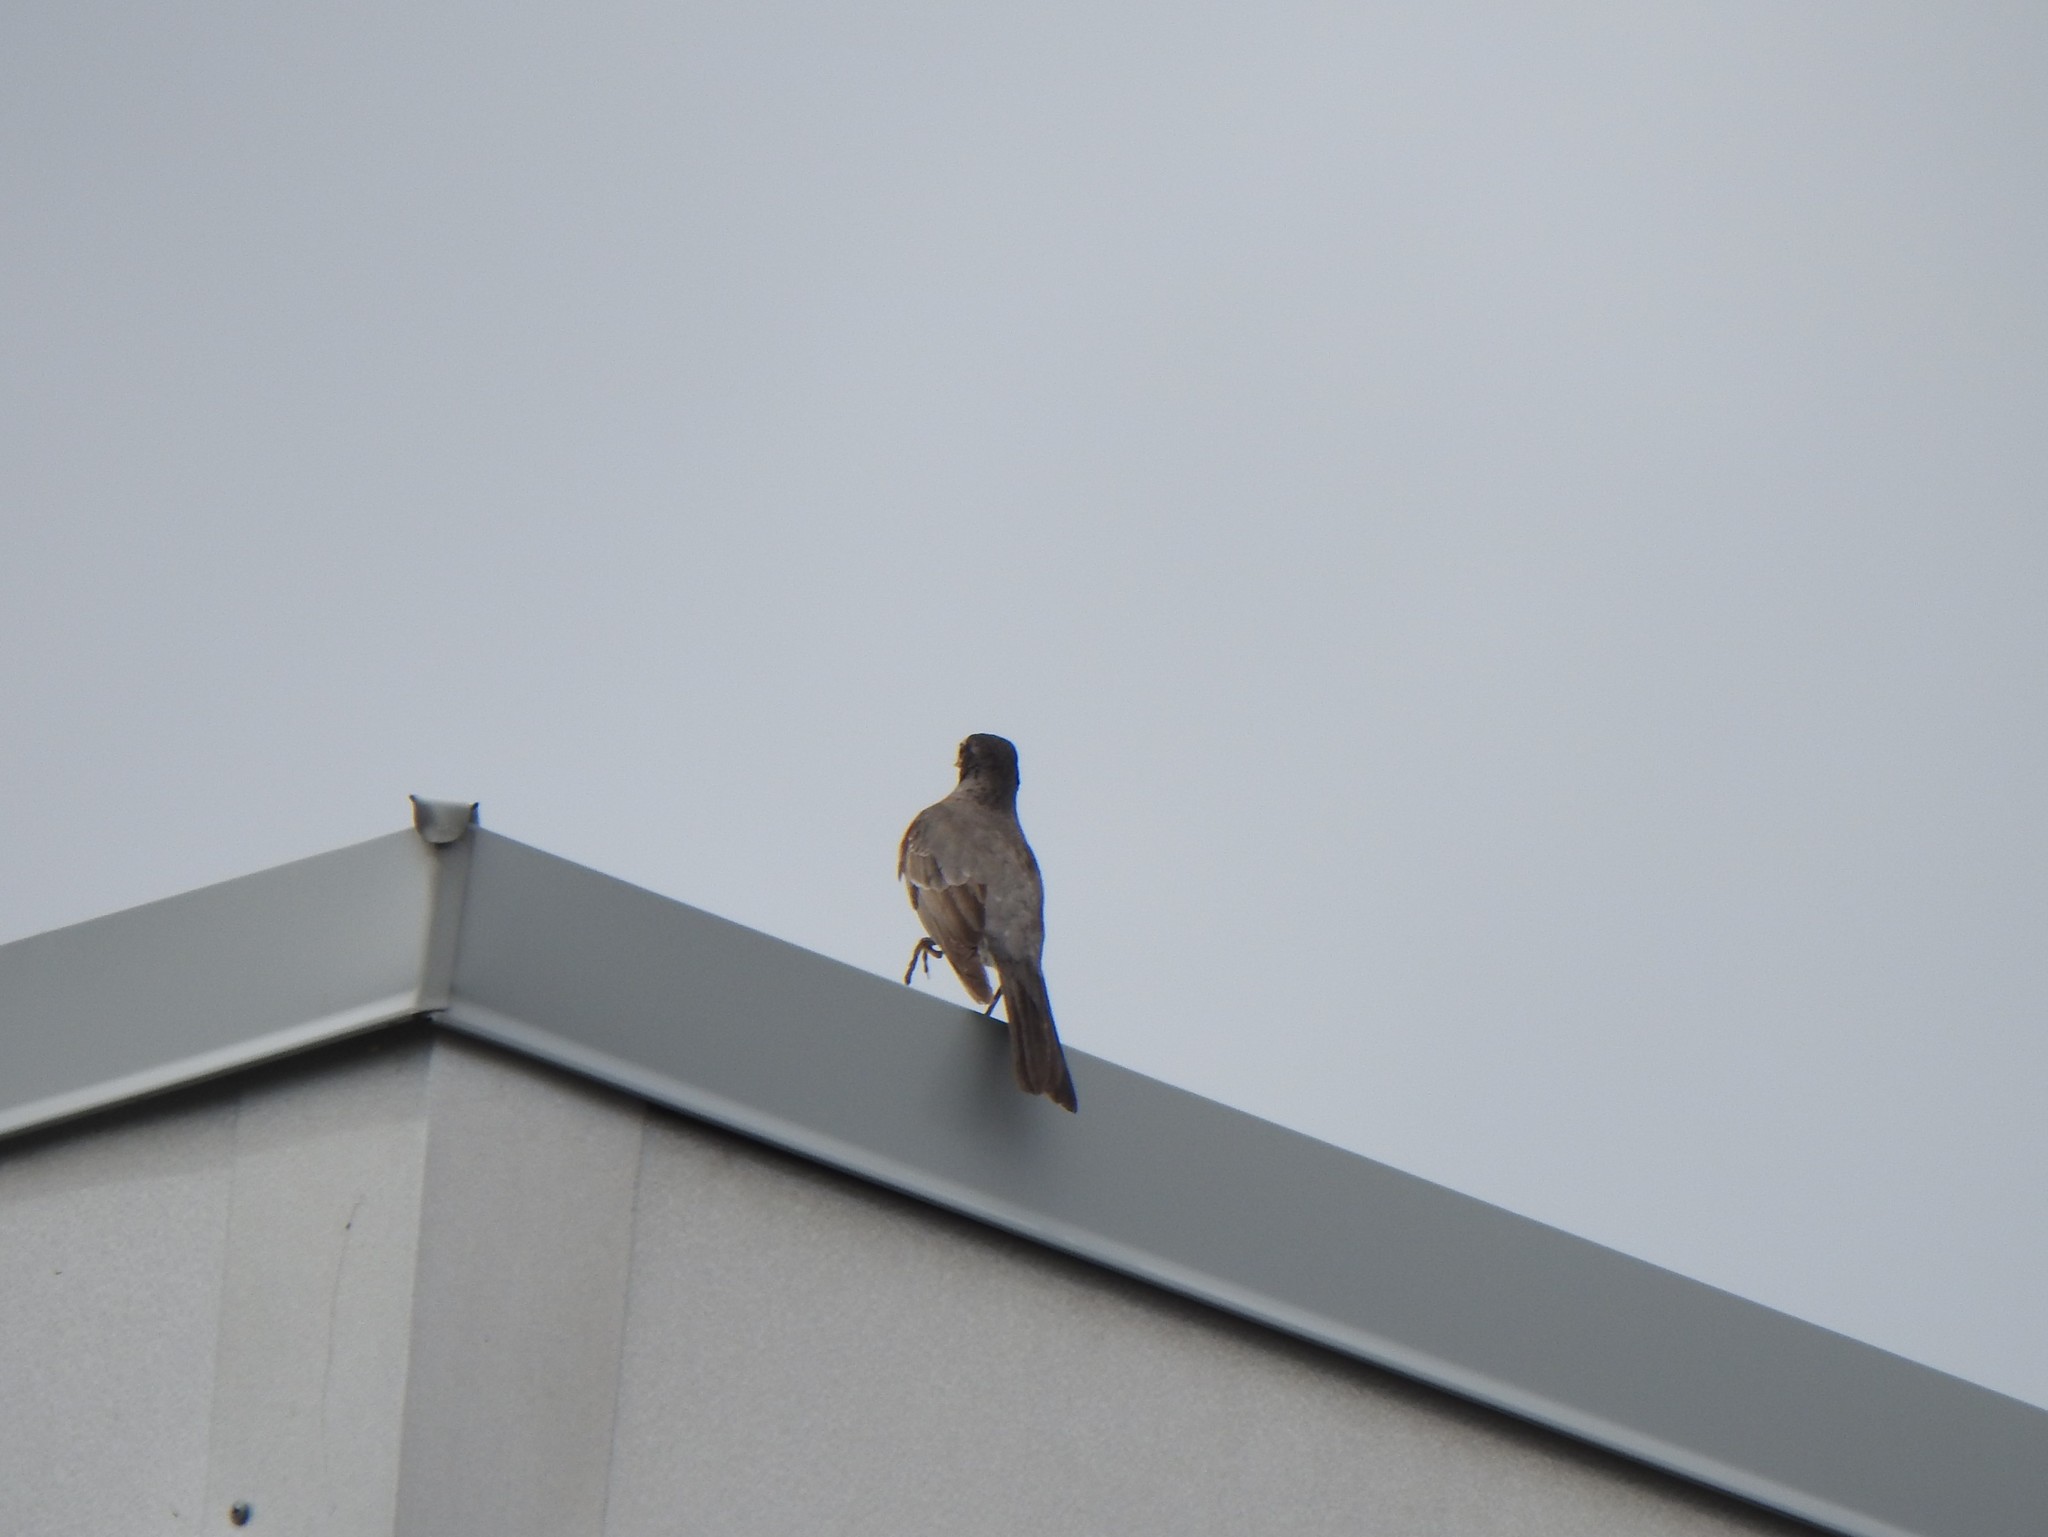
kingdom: Animalia
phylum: Chordata
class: Aves
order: Passeriformes
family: Turdidae
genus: Turdus
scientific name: Turdus migratorius
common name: American robin
